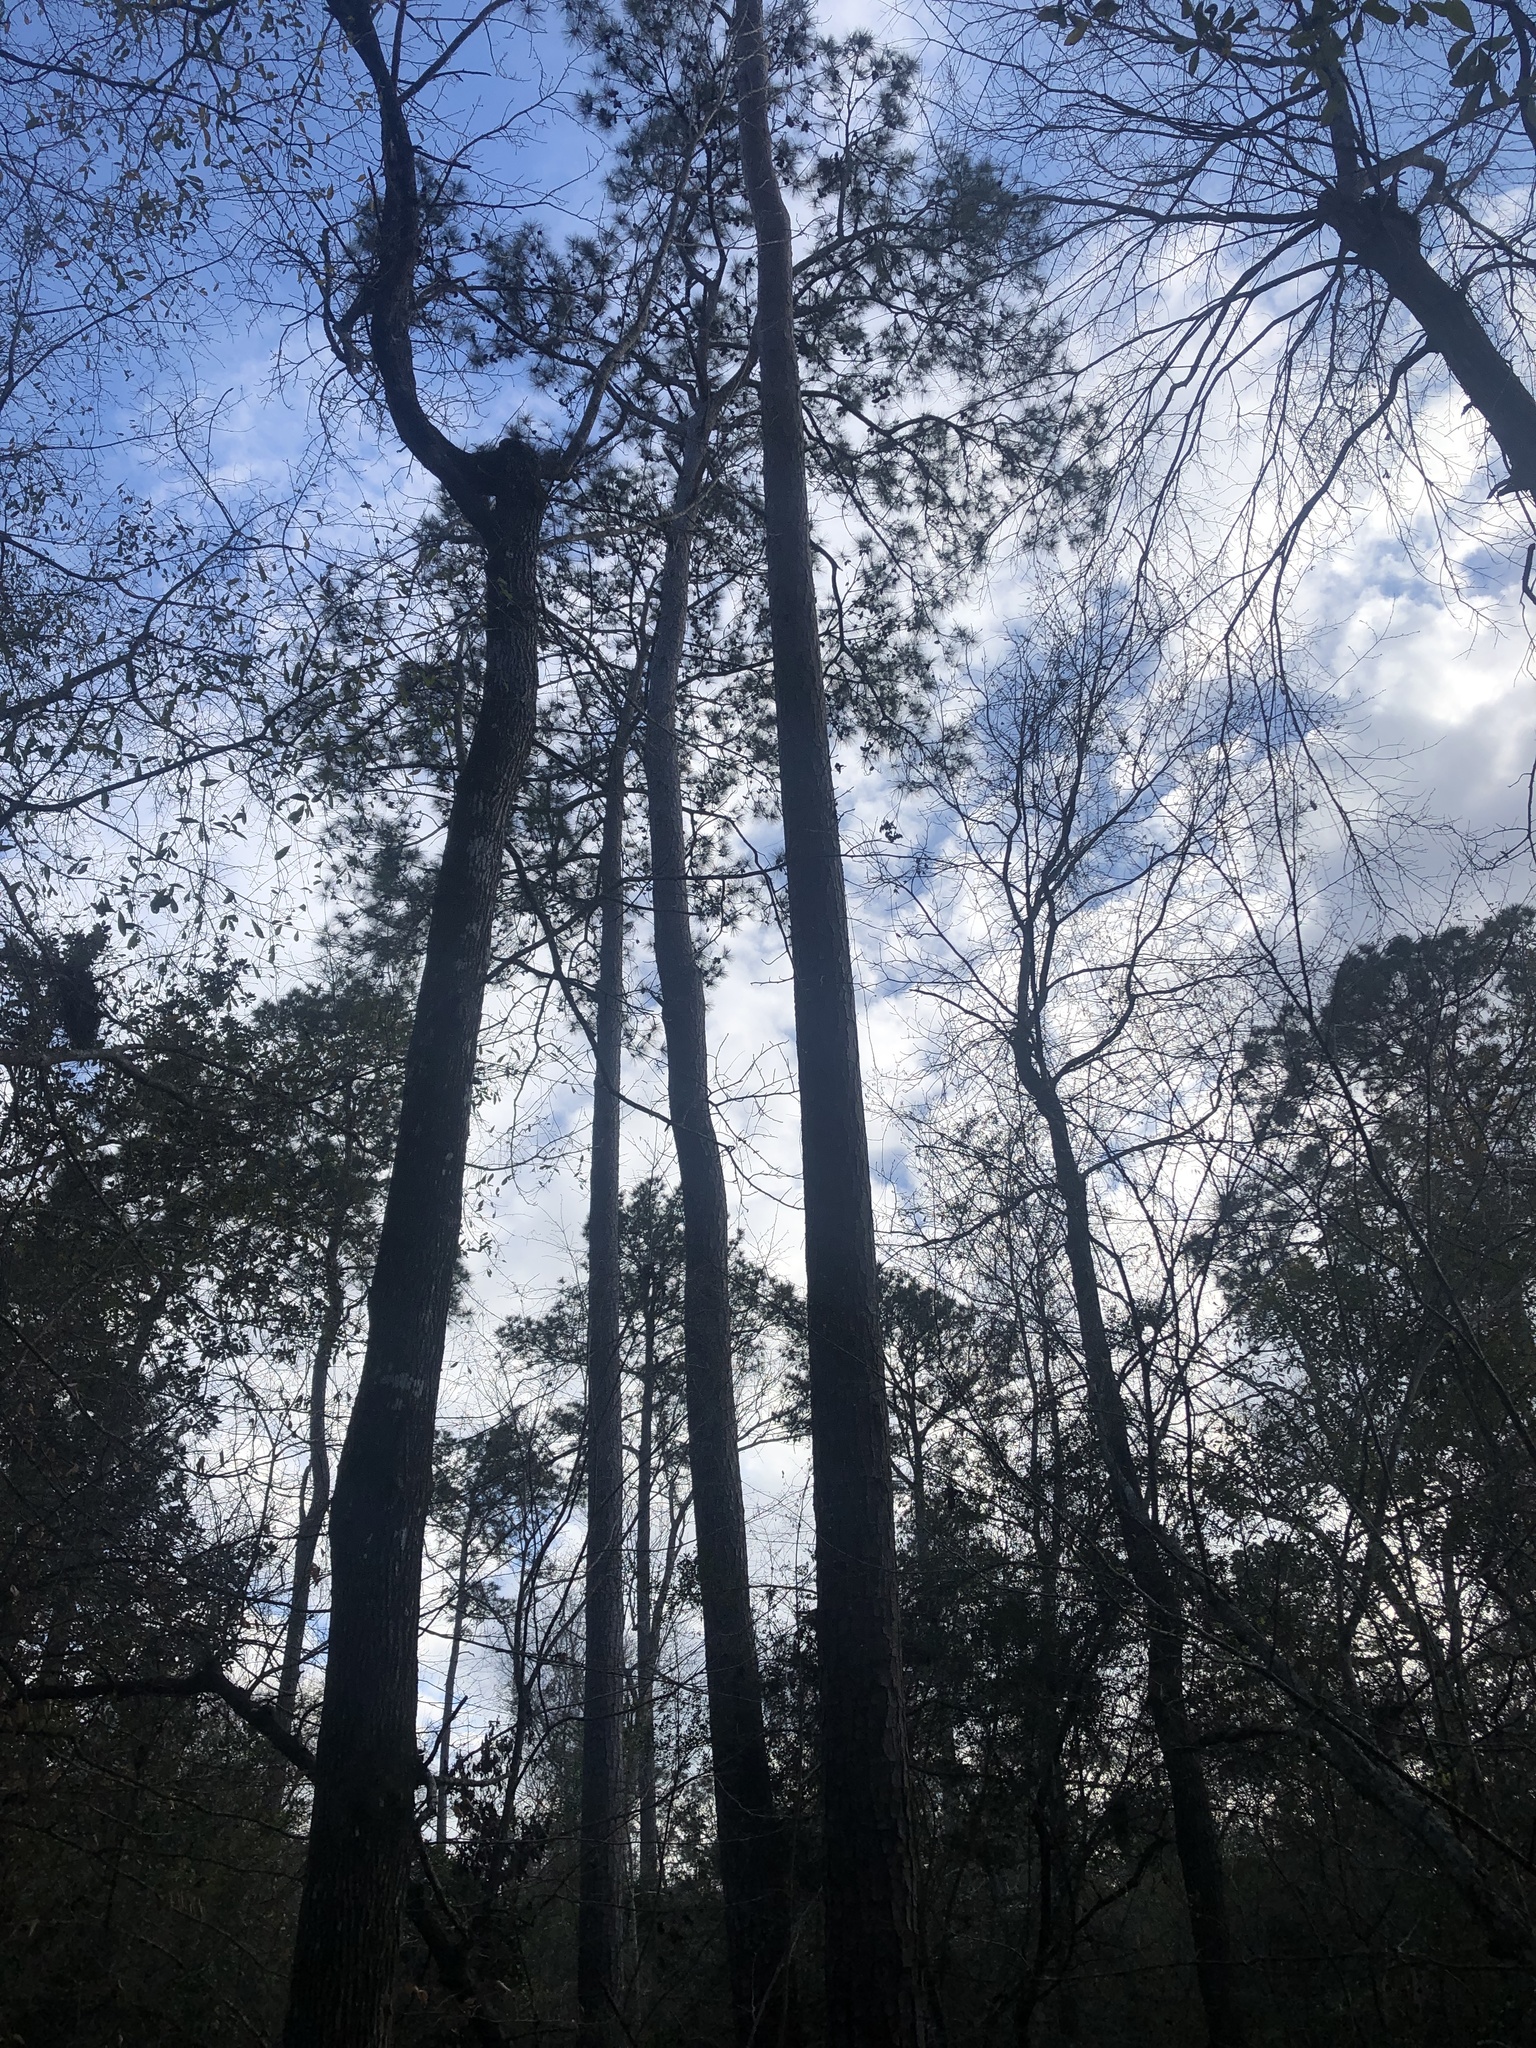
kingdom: Plantae
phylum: Tracheophyta
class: Pinopsida
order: Pinales
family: Pinaceae
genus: Pinus
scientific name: Pinus taeda
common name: Loblolly pine
